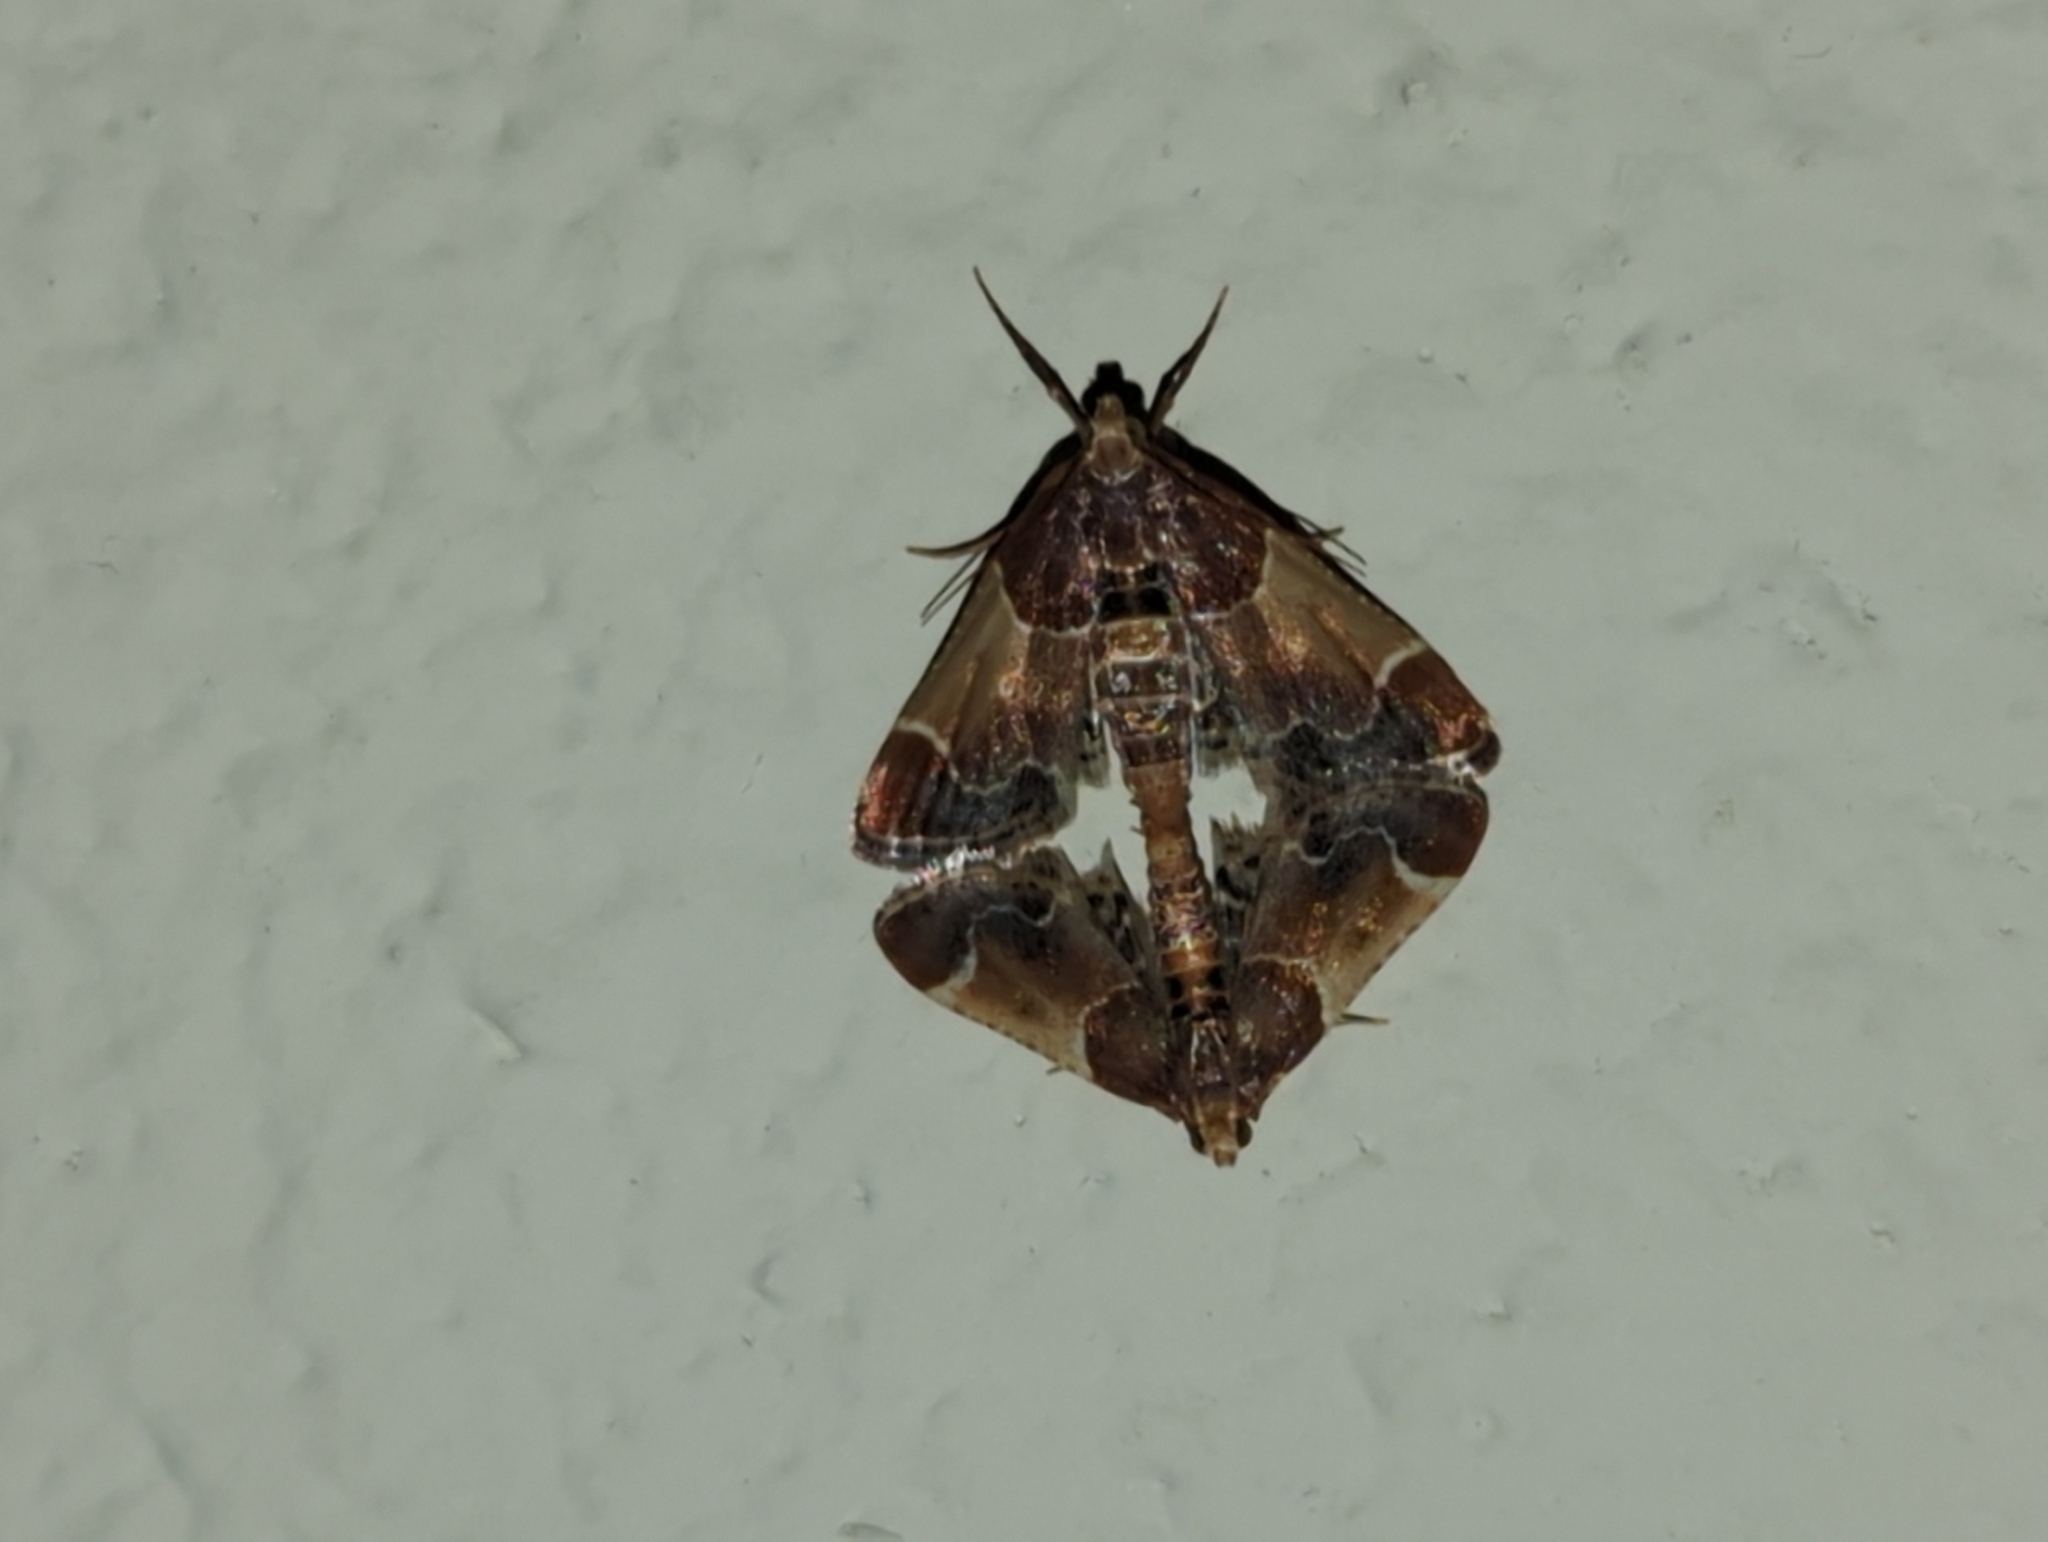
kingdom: Animalia
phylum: Arthropoda
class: Insecta
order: Lepidoptera
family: Pyralidae
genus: Pyralis
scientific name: Pyralis farinalis
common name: Meal moth
